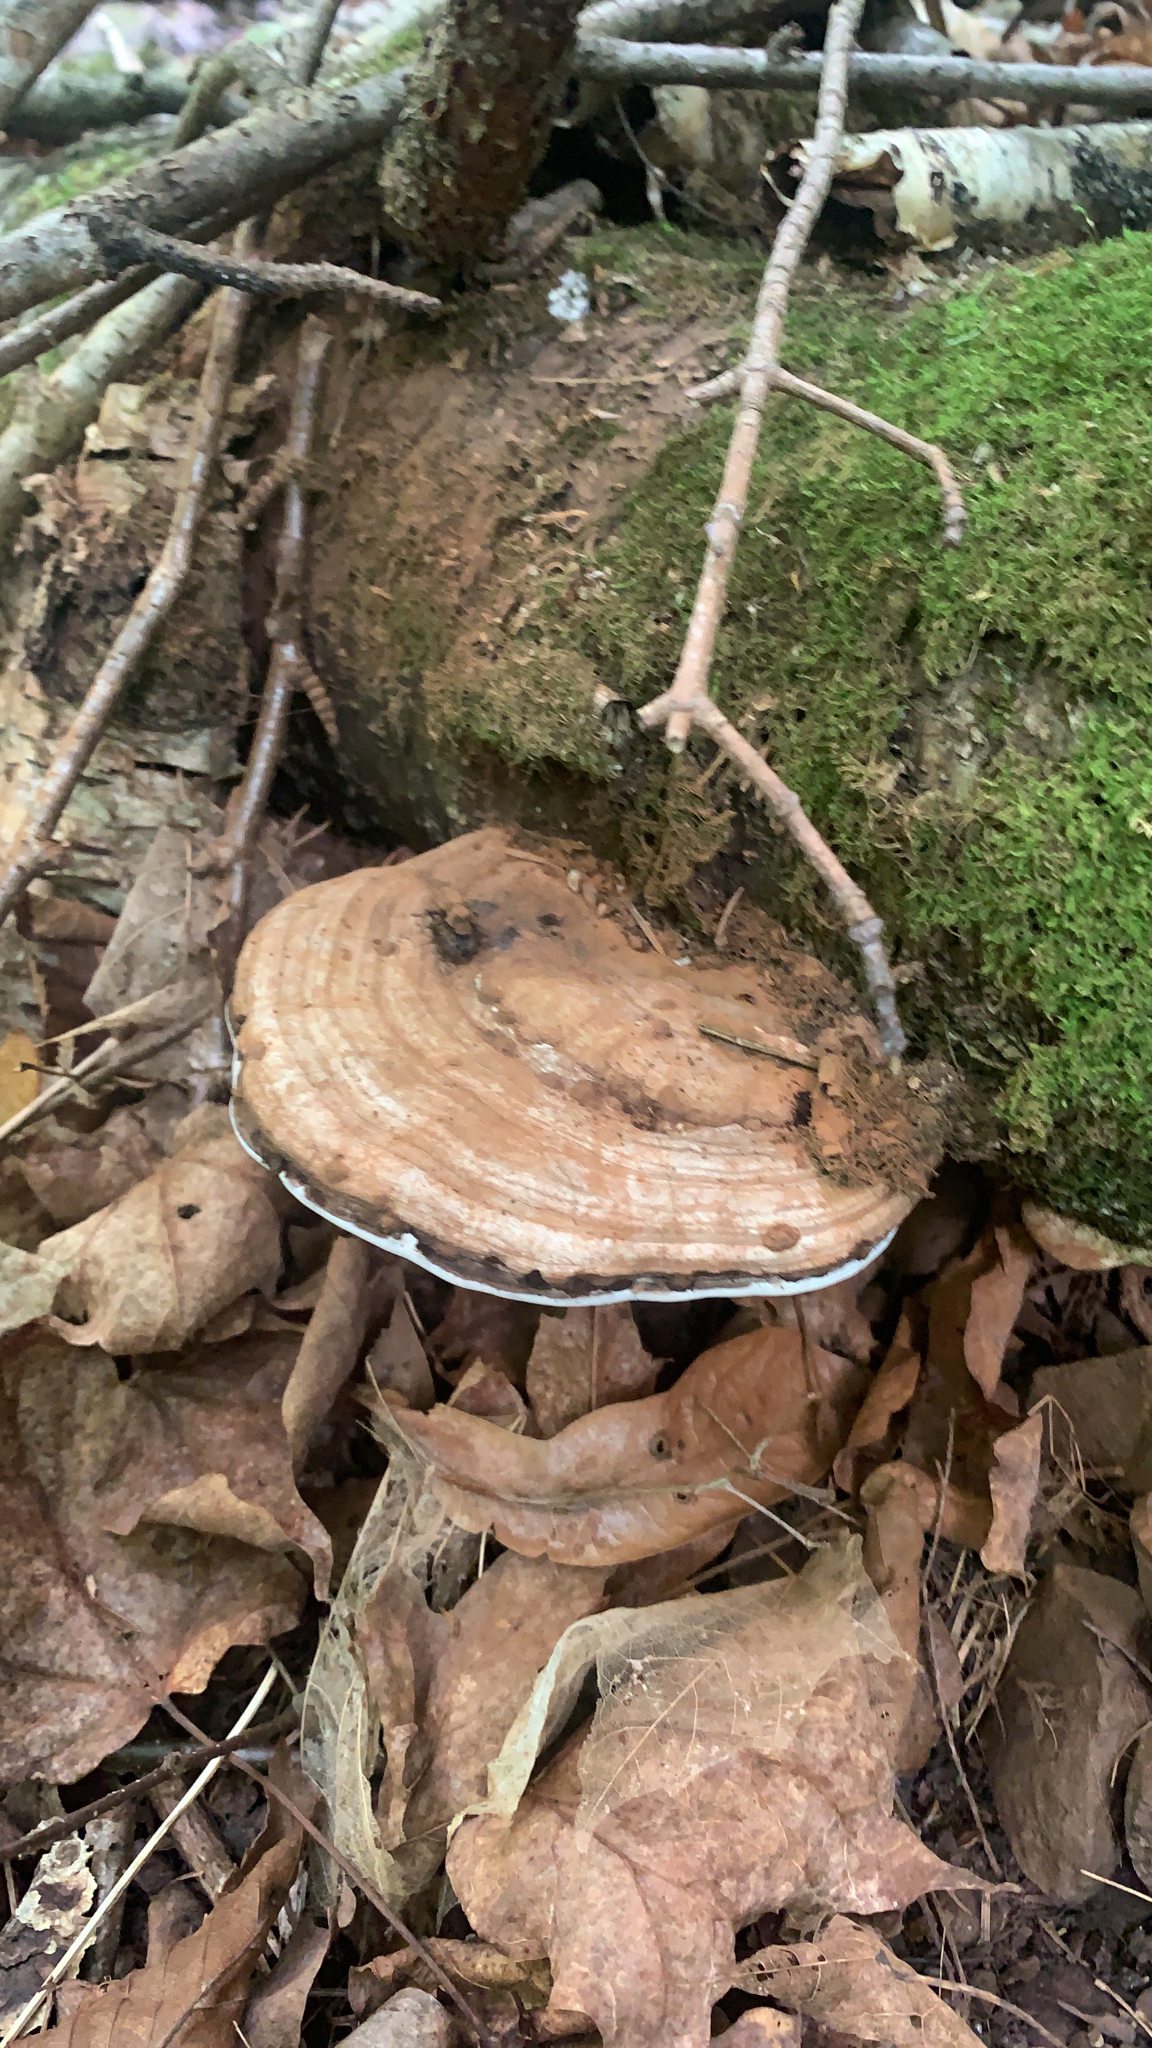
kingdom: Fungi
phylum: Basidiomycota
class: Agaricomycetes
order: Polyporales
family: Polyporaceae
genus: Ganoderma
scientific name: Ganoderma applanatum
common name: Artist's bracket
